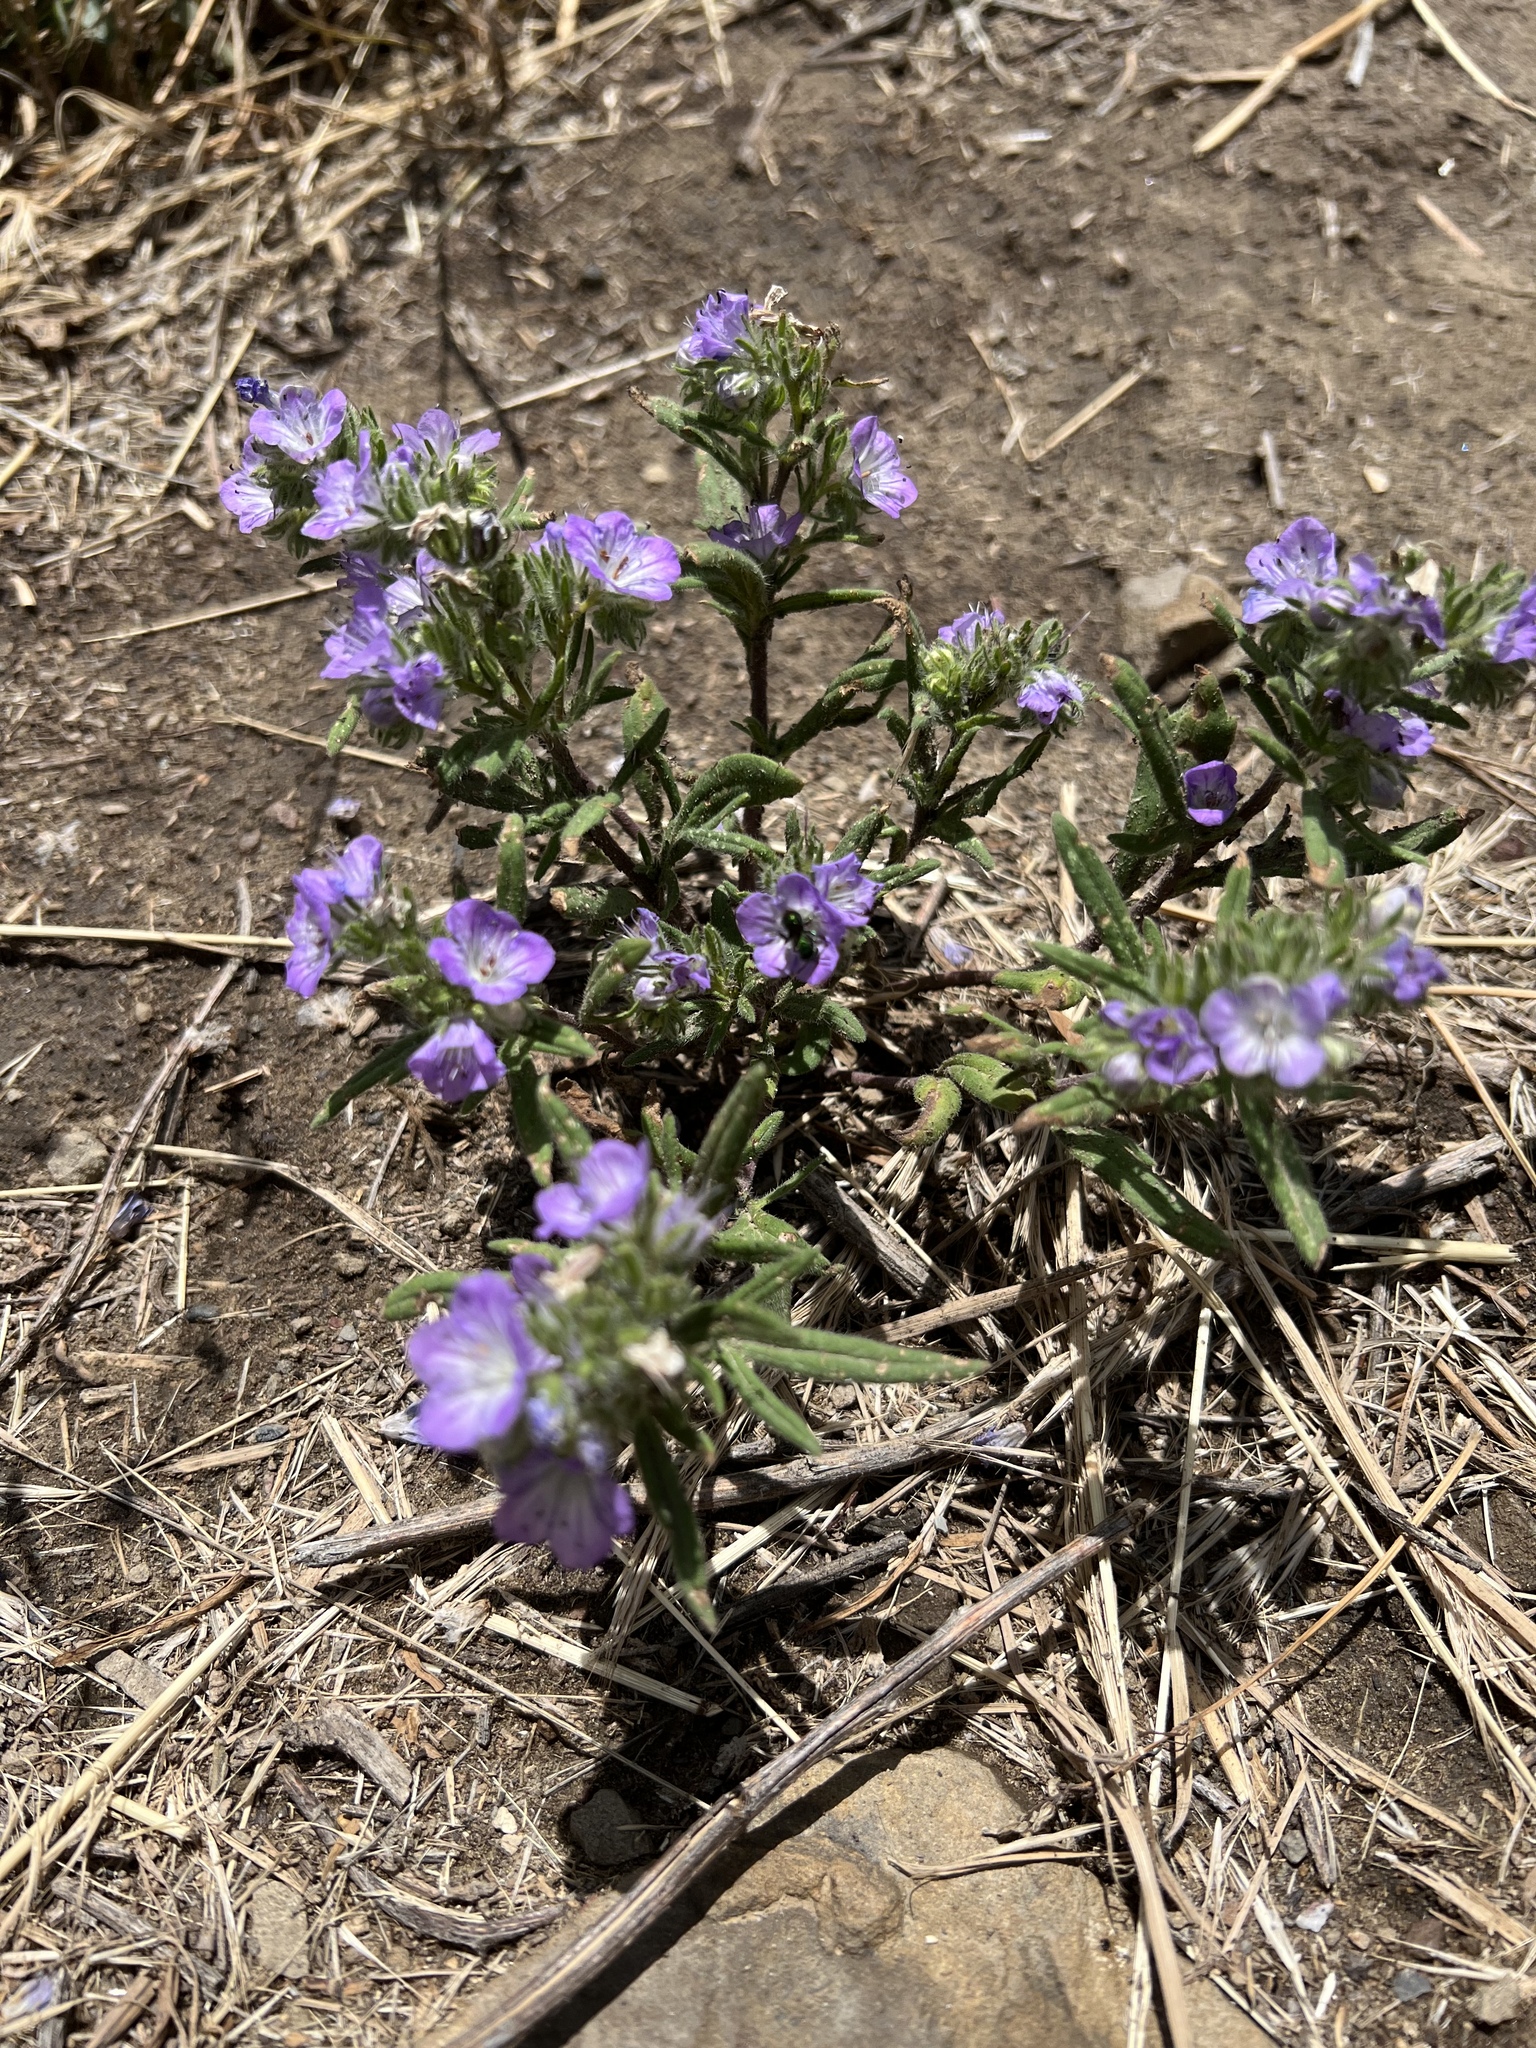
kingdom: Plantae
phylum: Tracheophyta
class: Magnoliopsida
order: Boraginales
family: Hydrophyllaceae
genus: Phacelia
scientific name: Phacelia linearis
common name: Linear-leaved phacelia
